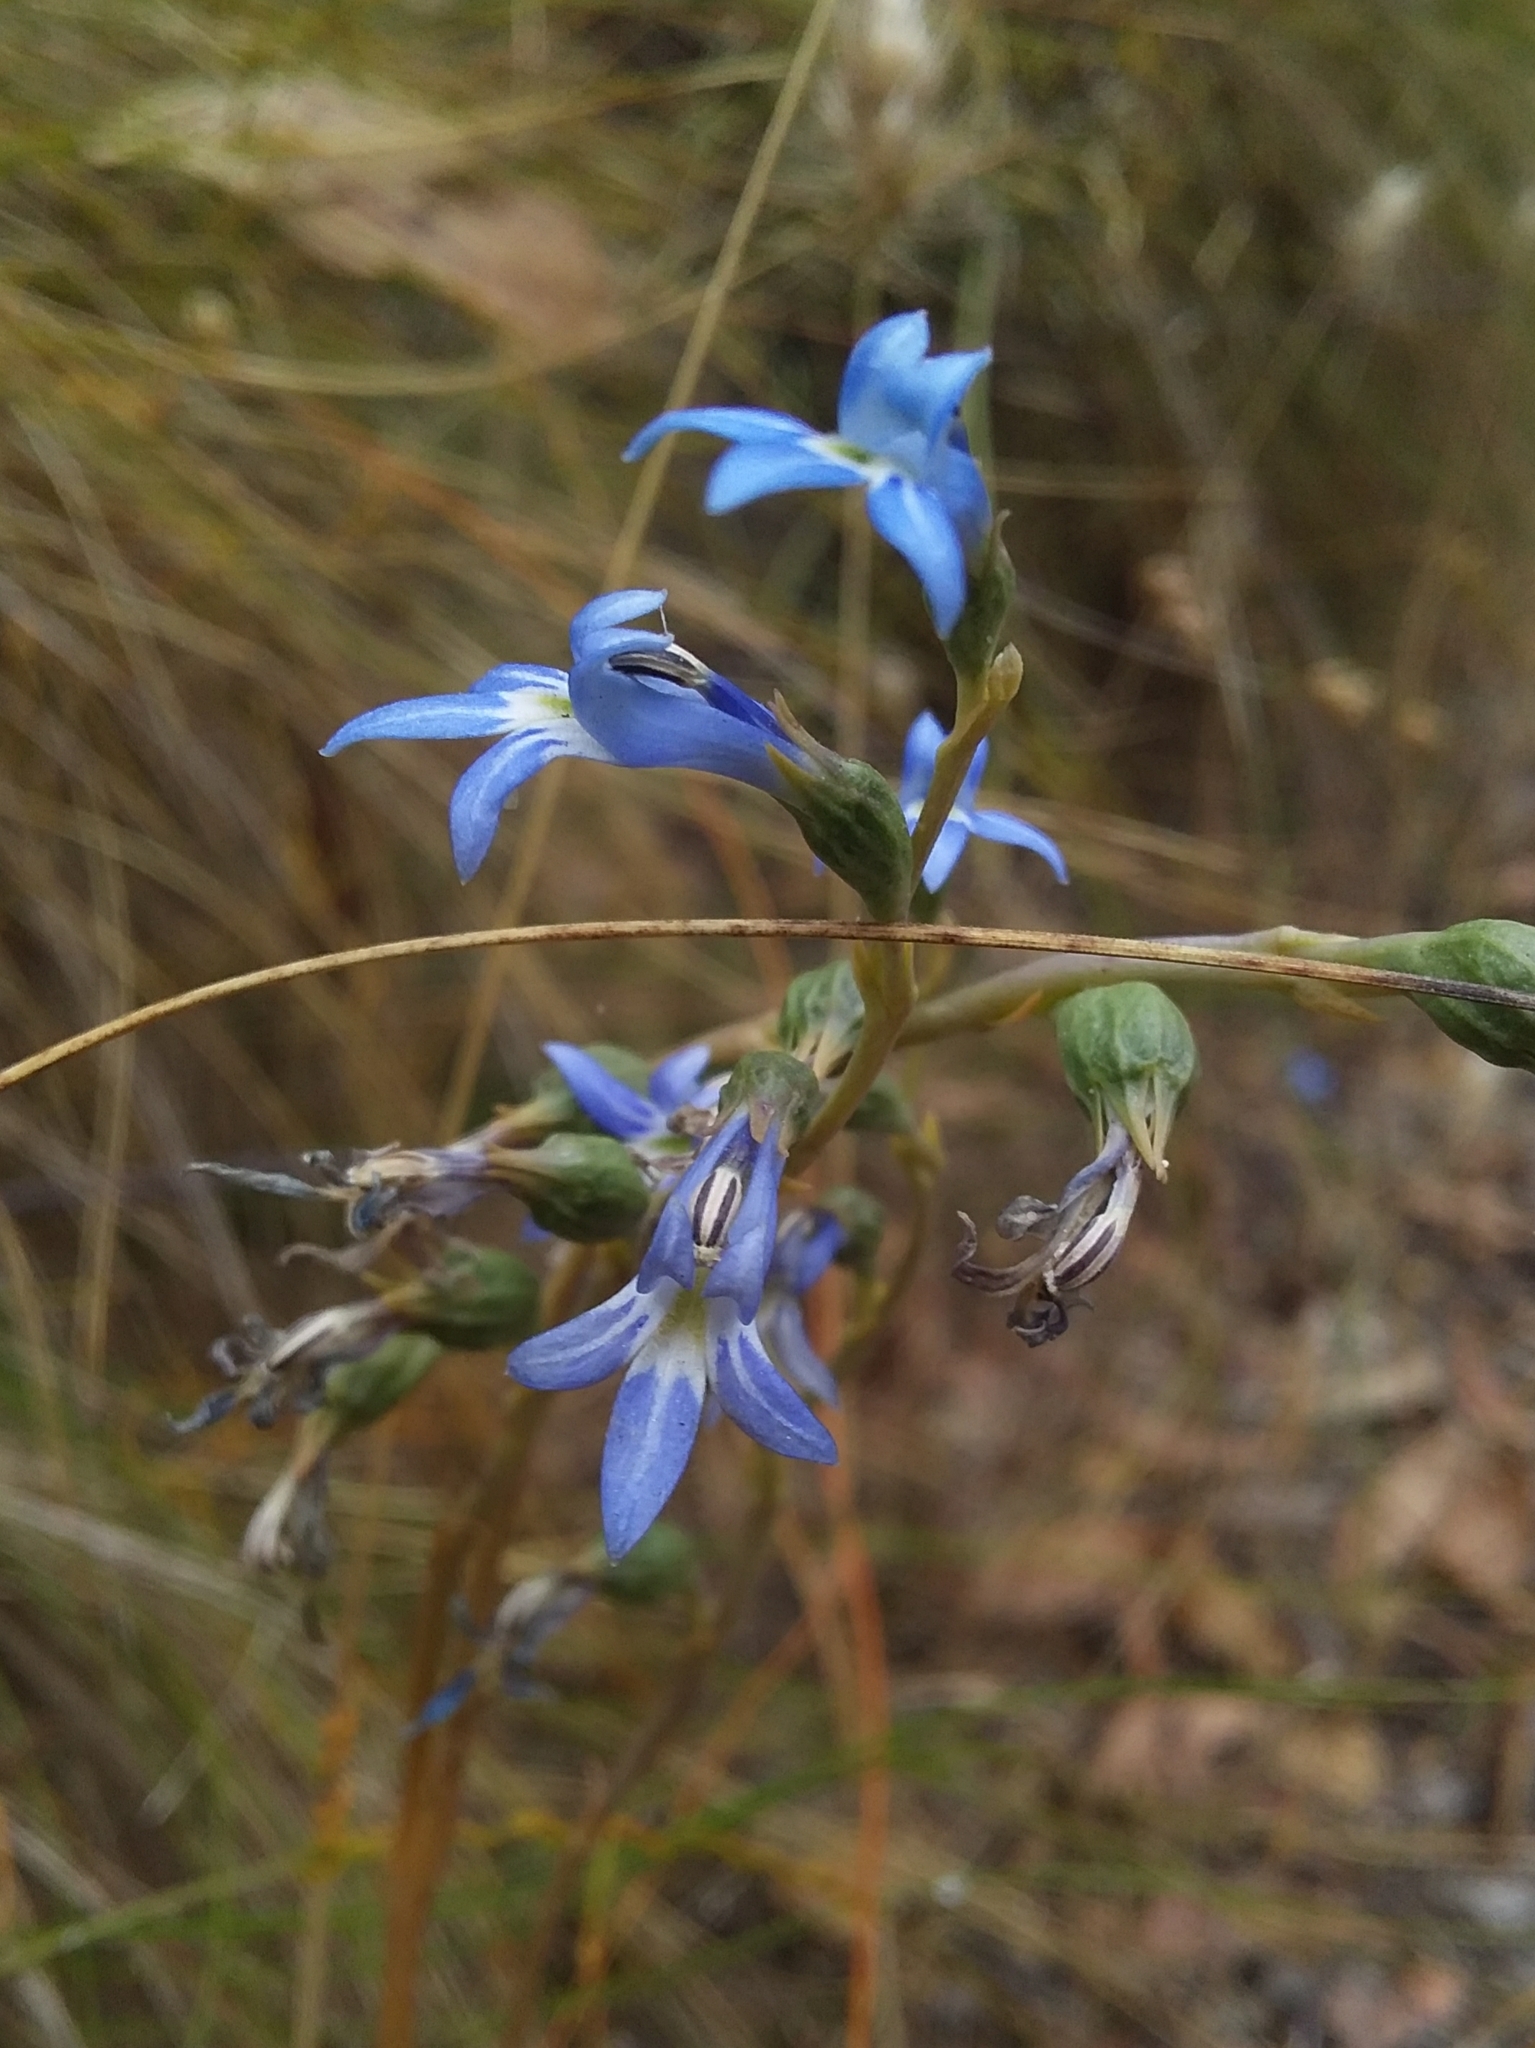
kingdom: Plantae
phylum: Tracheophyta
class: Magnoliopsida
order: Asterales
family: Campanulaceae
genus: Lobelia
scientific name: Lobelia gibbosa
